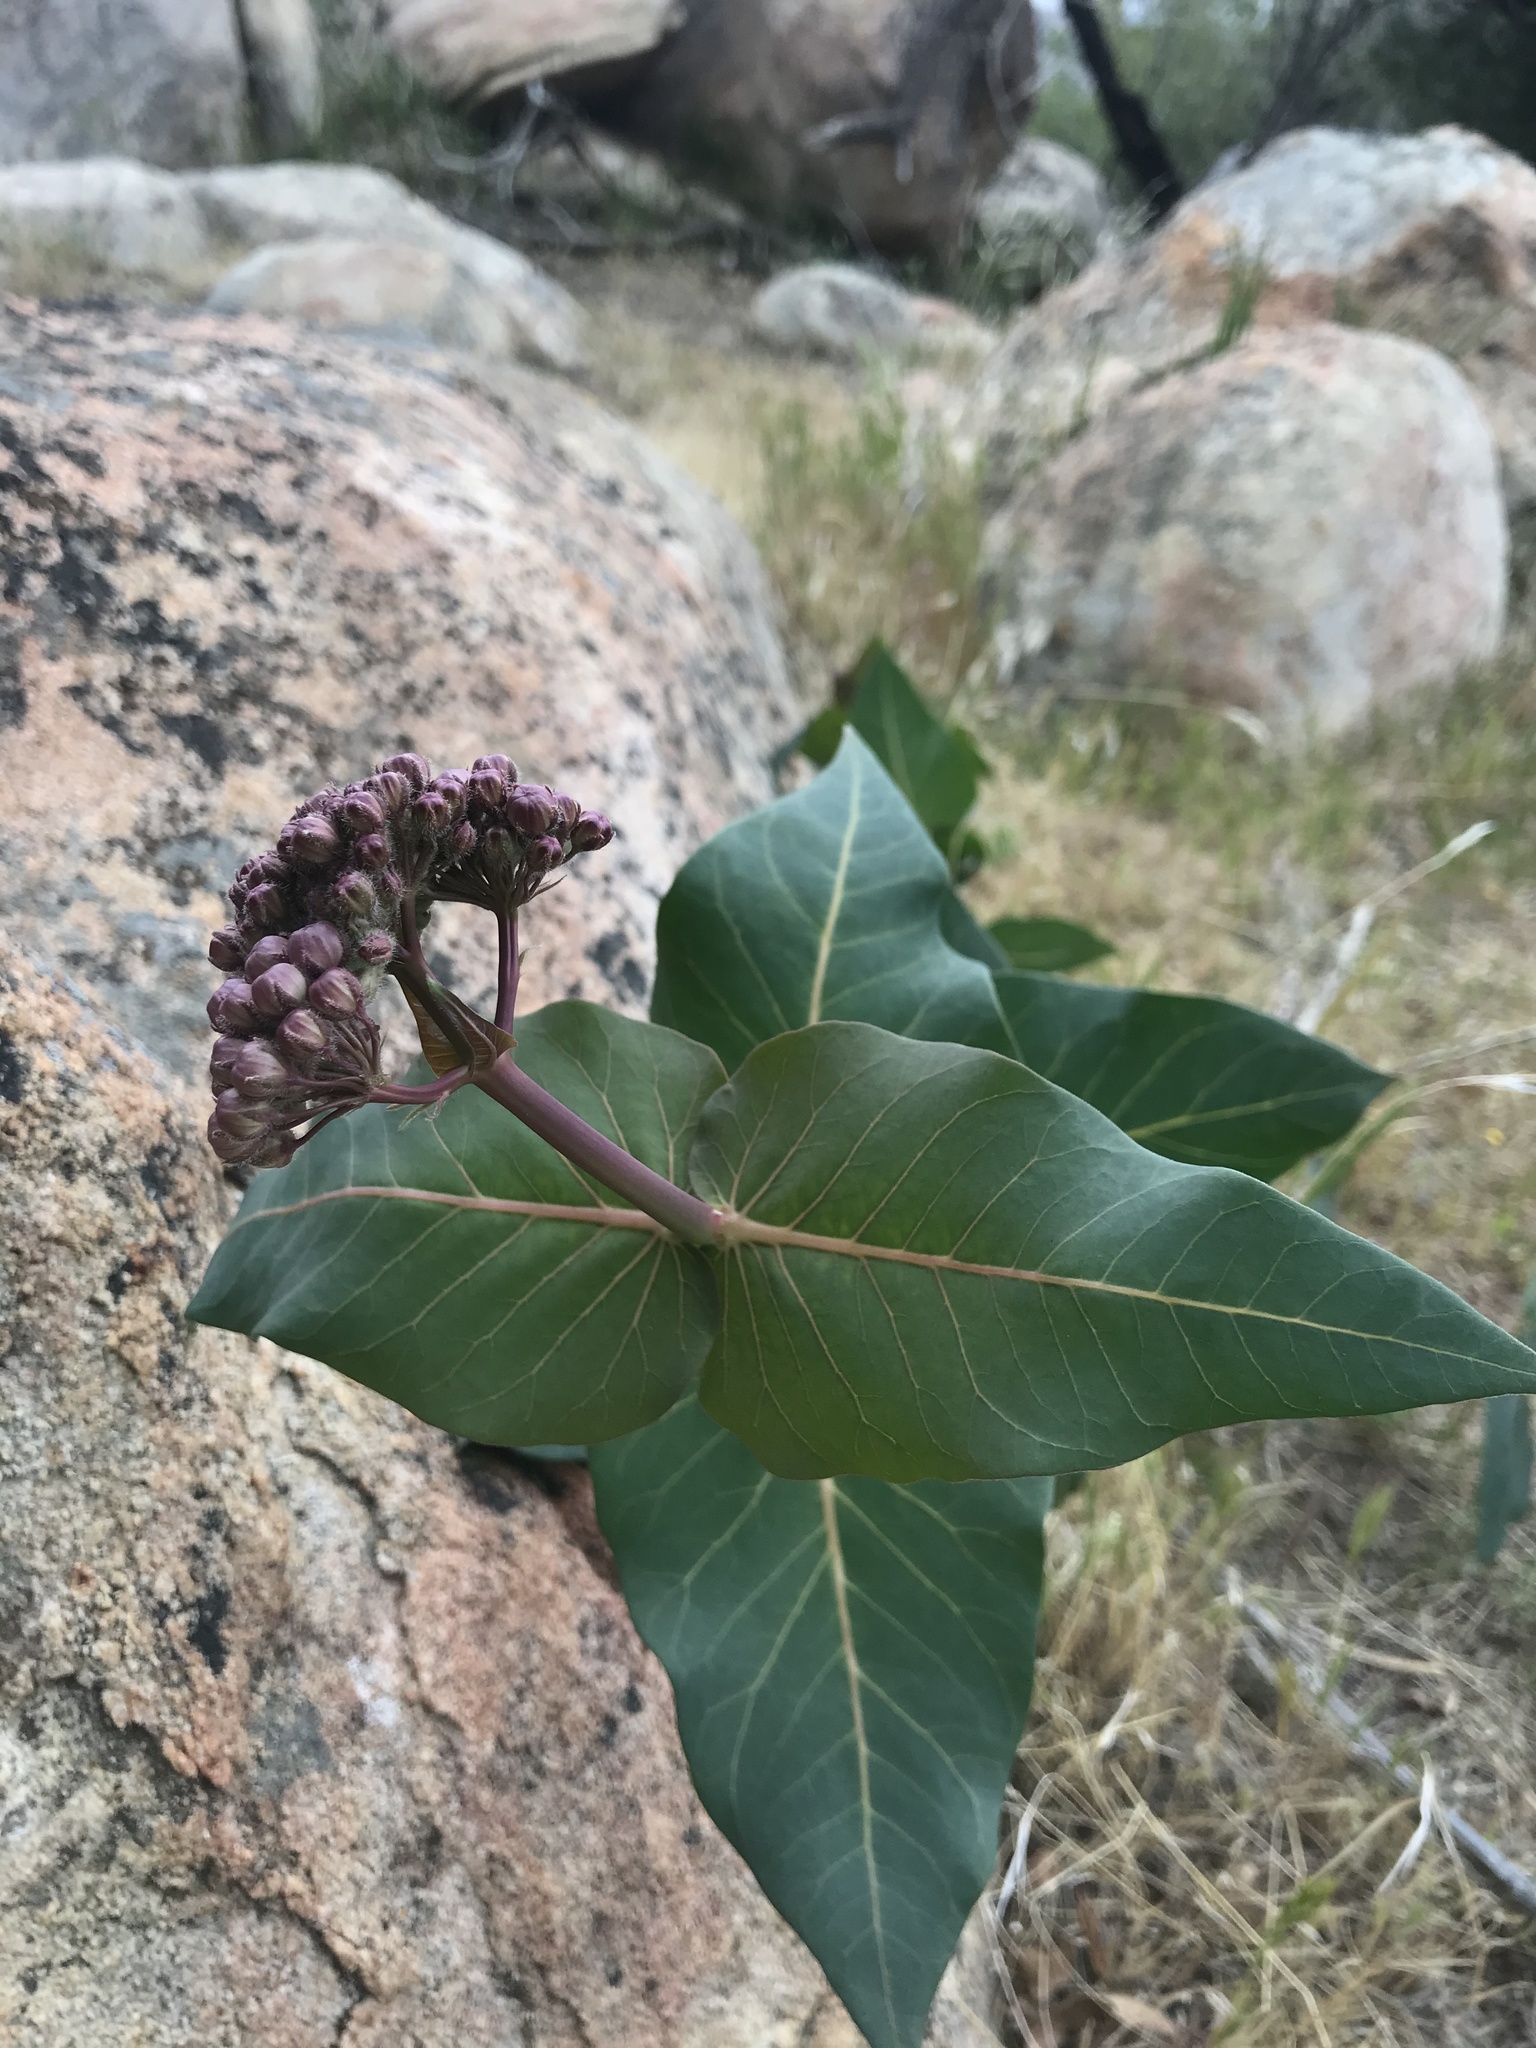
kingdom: Plantae
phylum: Tracheophyta
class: Magnoliopsida
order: Gentianales
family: Apocynaceae
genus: Asclepias
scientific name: Asclepias cordifolia
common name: Purple milkweed
